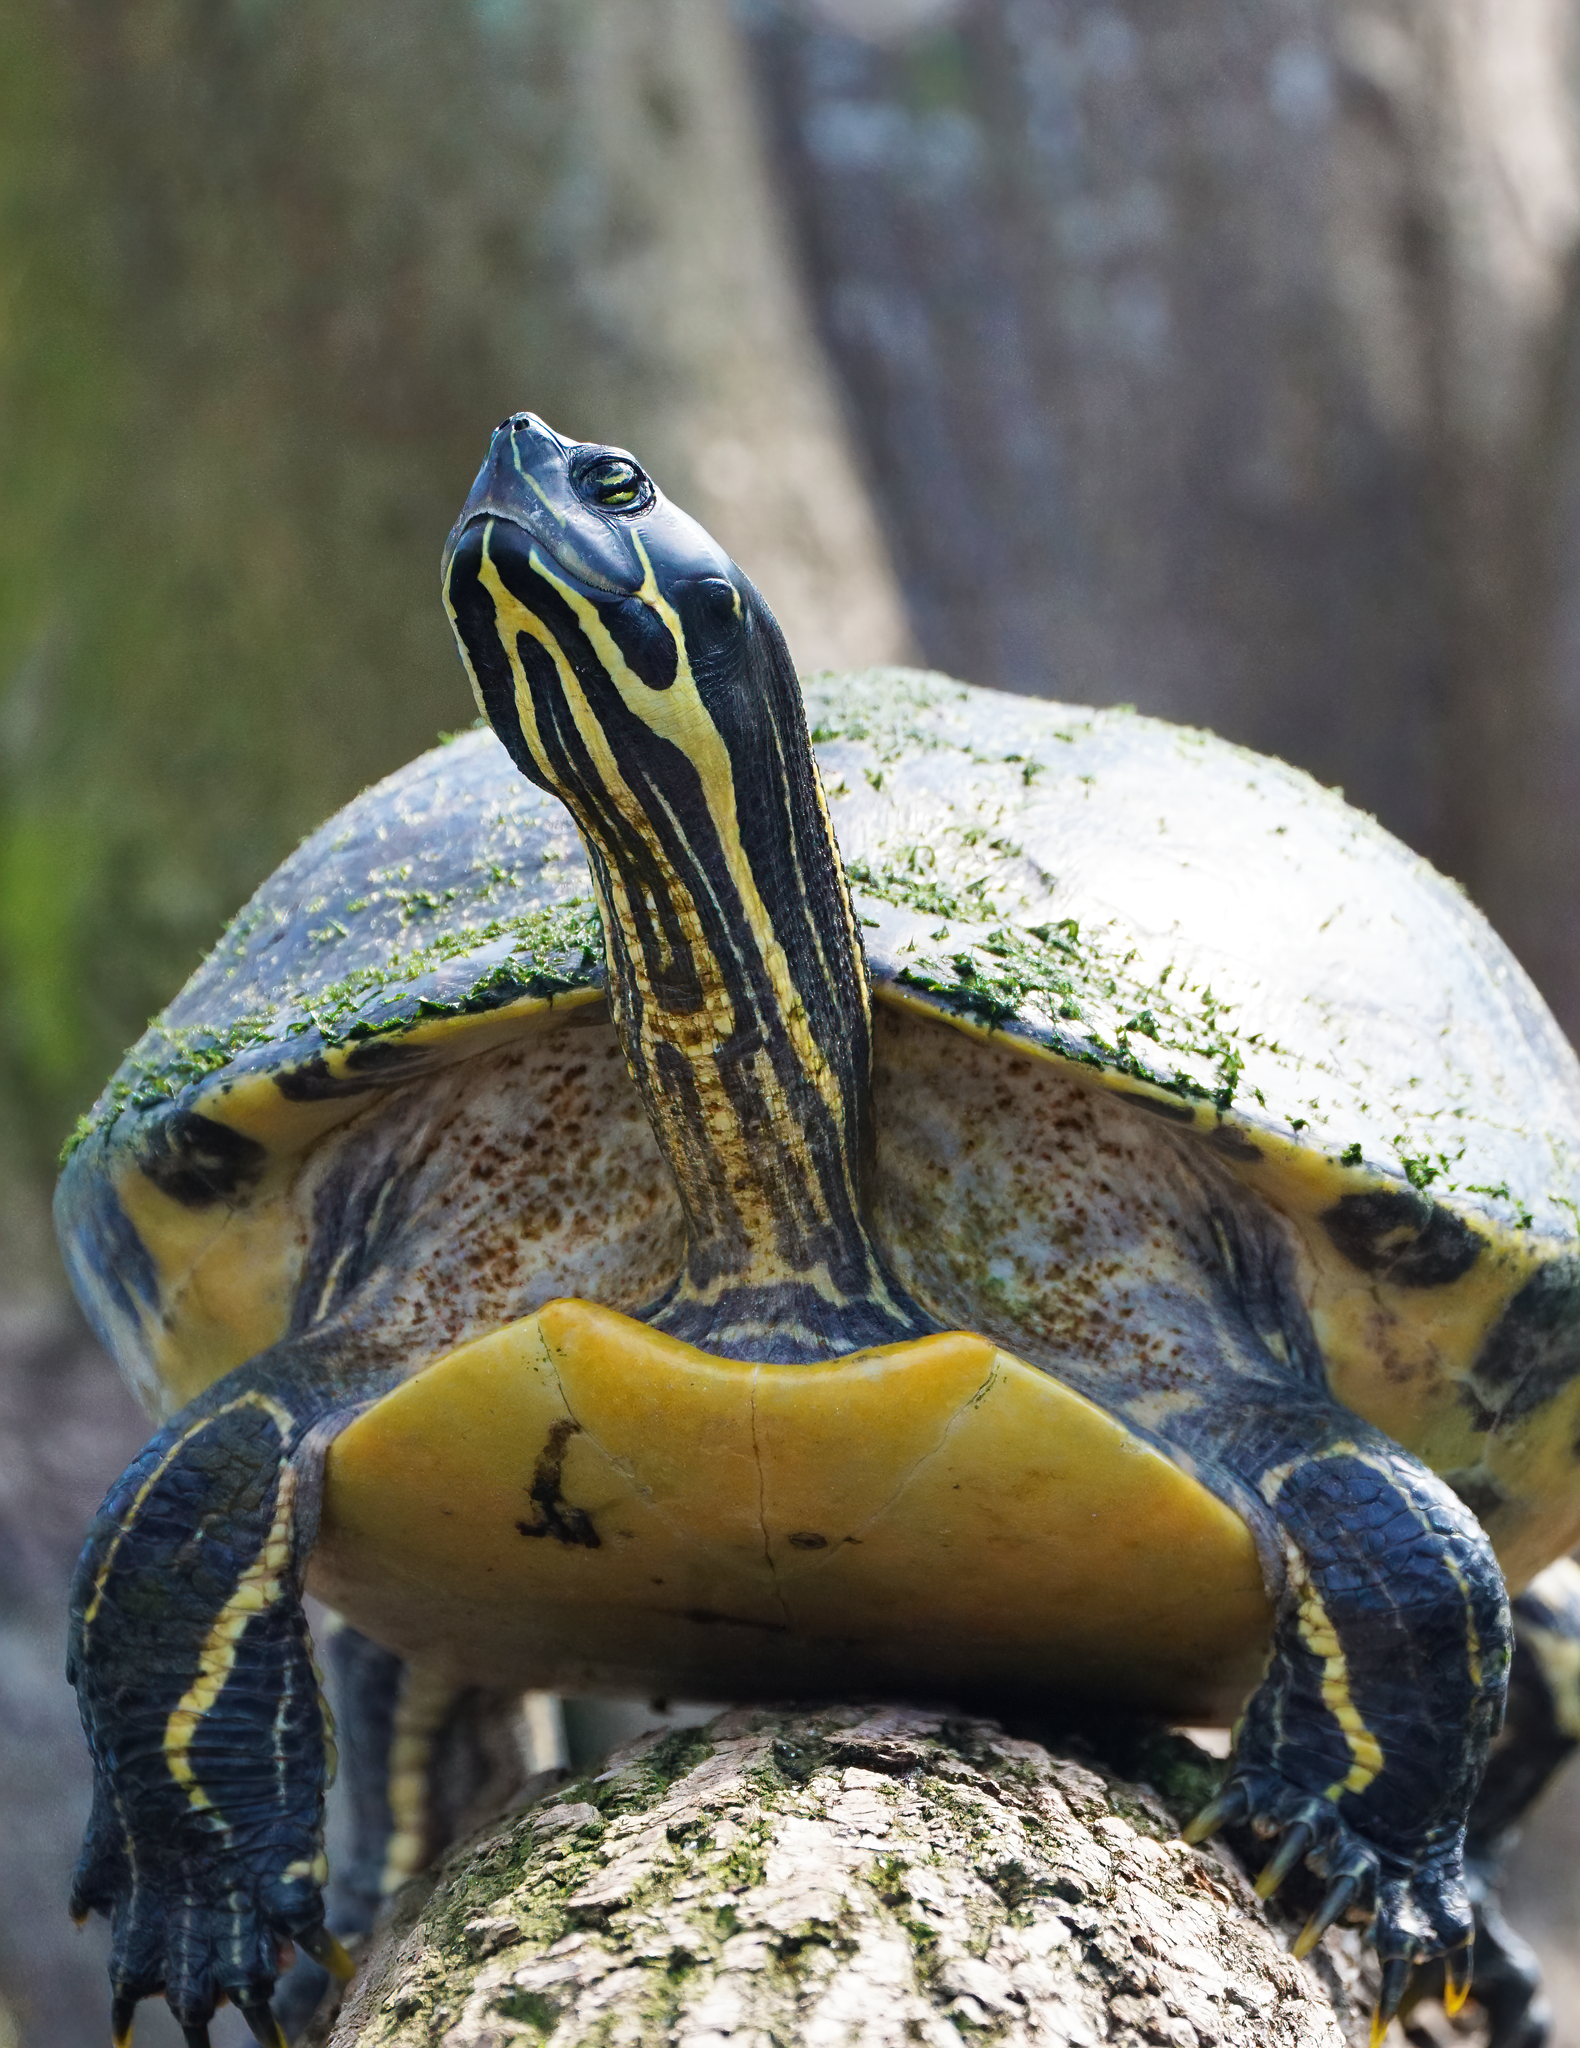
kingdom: Animalia
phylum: Chordata
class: Testudines
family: Emydidae
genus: Pseudemys
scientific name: Pseudemys peninsularis
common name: Peninsula cooter
